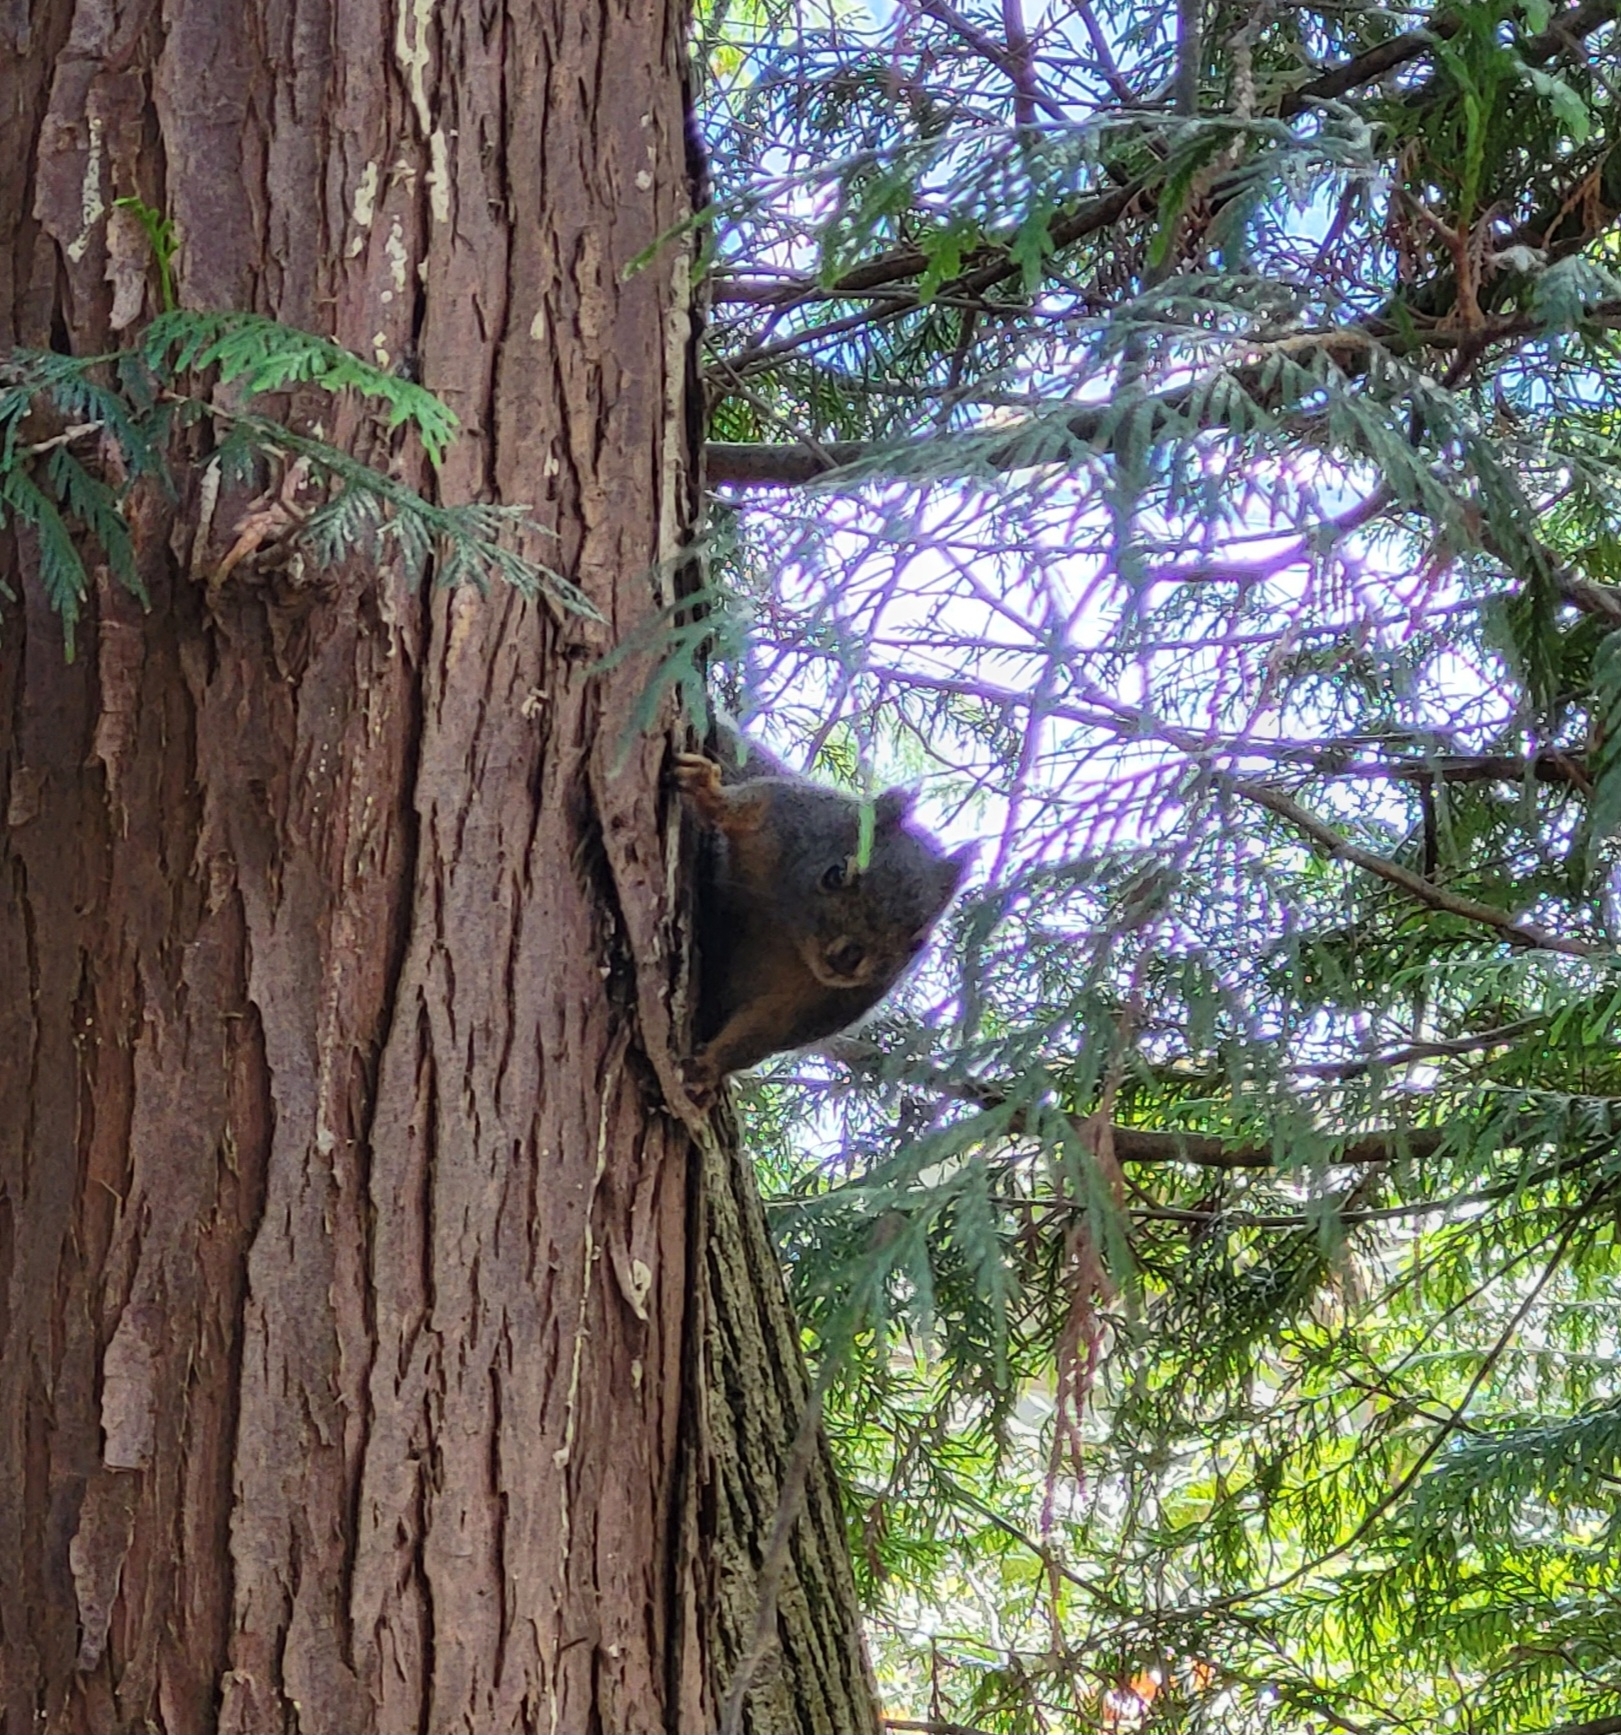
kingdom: Animalia
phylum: Chordata
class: Mammalia
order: Rodentia
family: Sciuridae
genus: Tamiasciurus
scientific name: Tamiasciurus douglasii
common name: Douglas's squirrel
